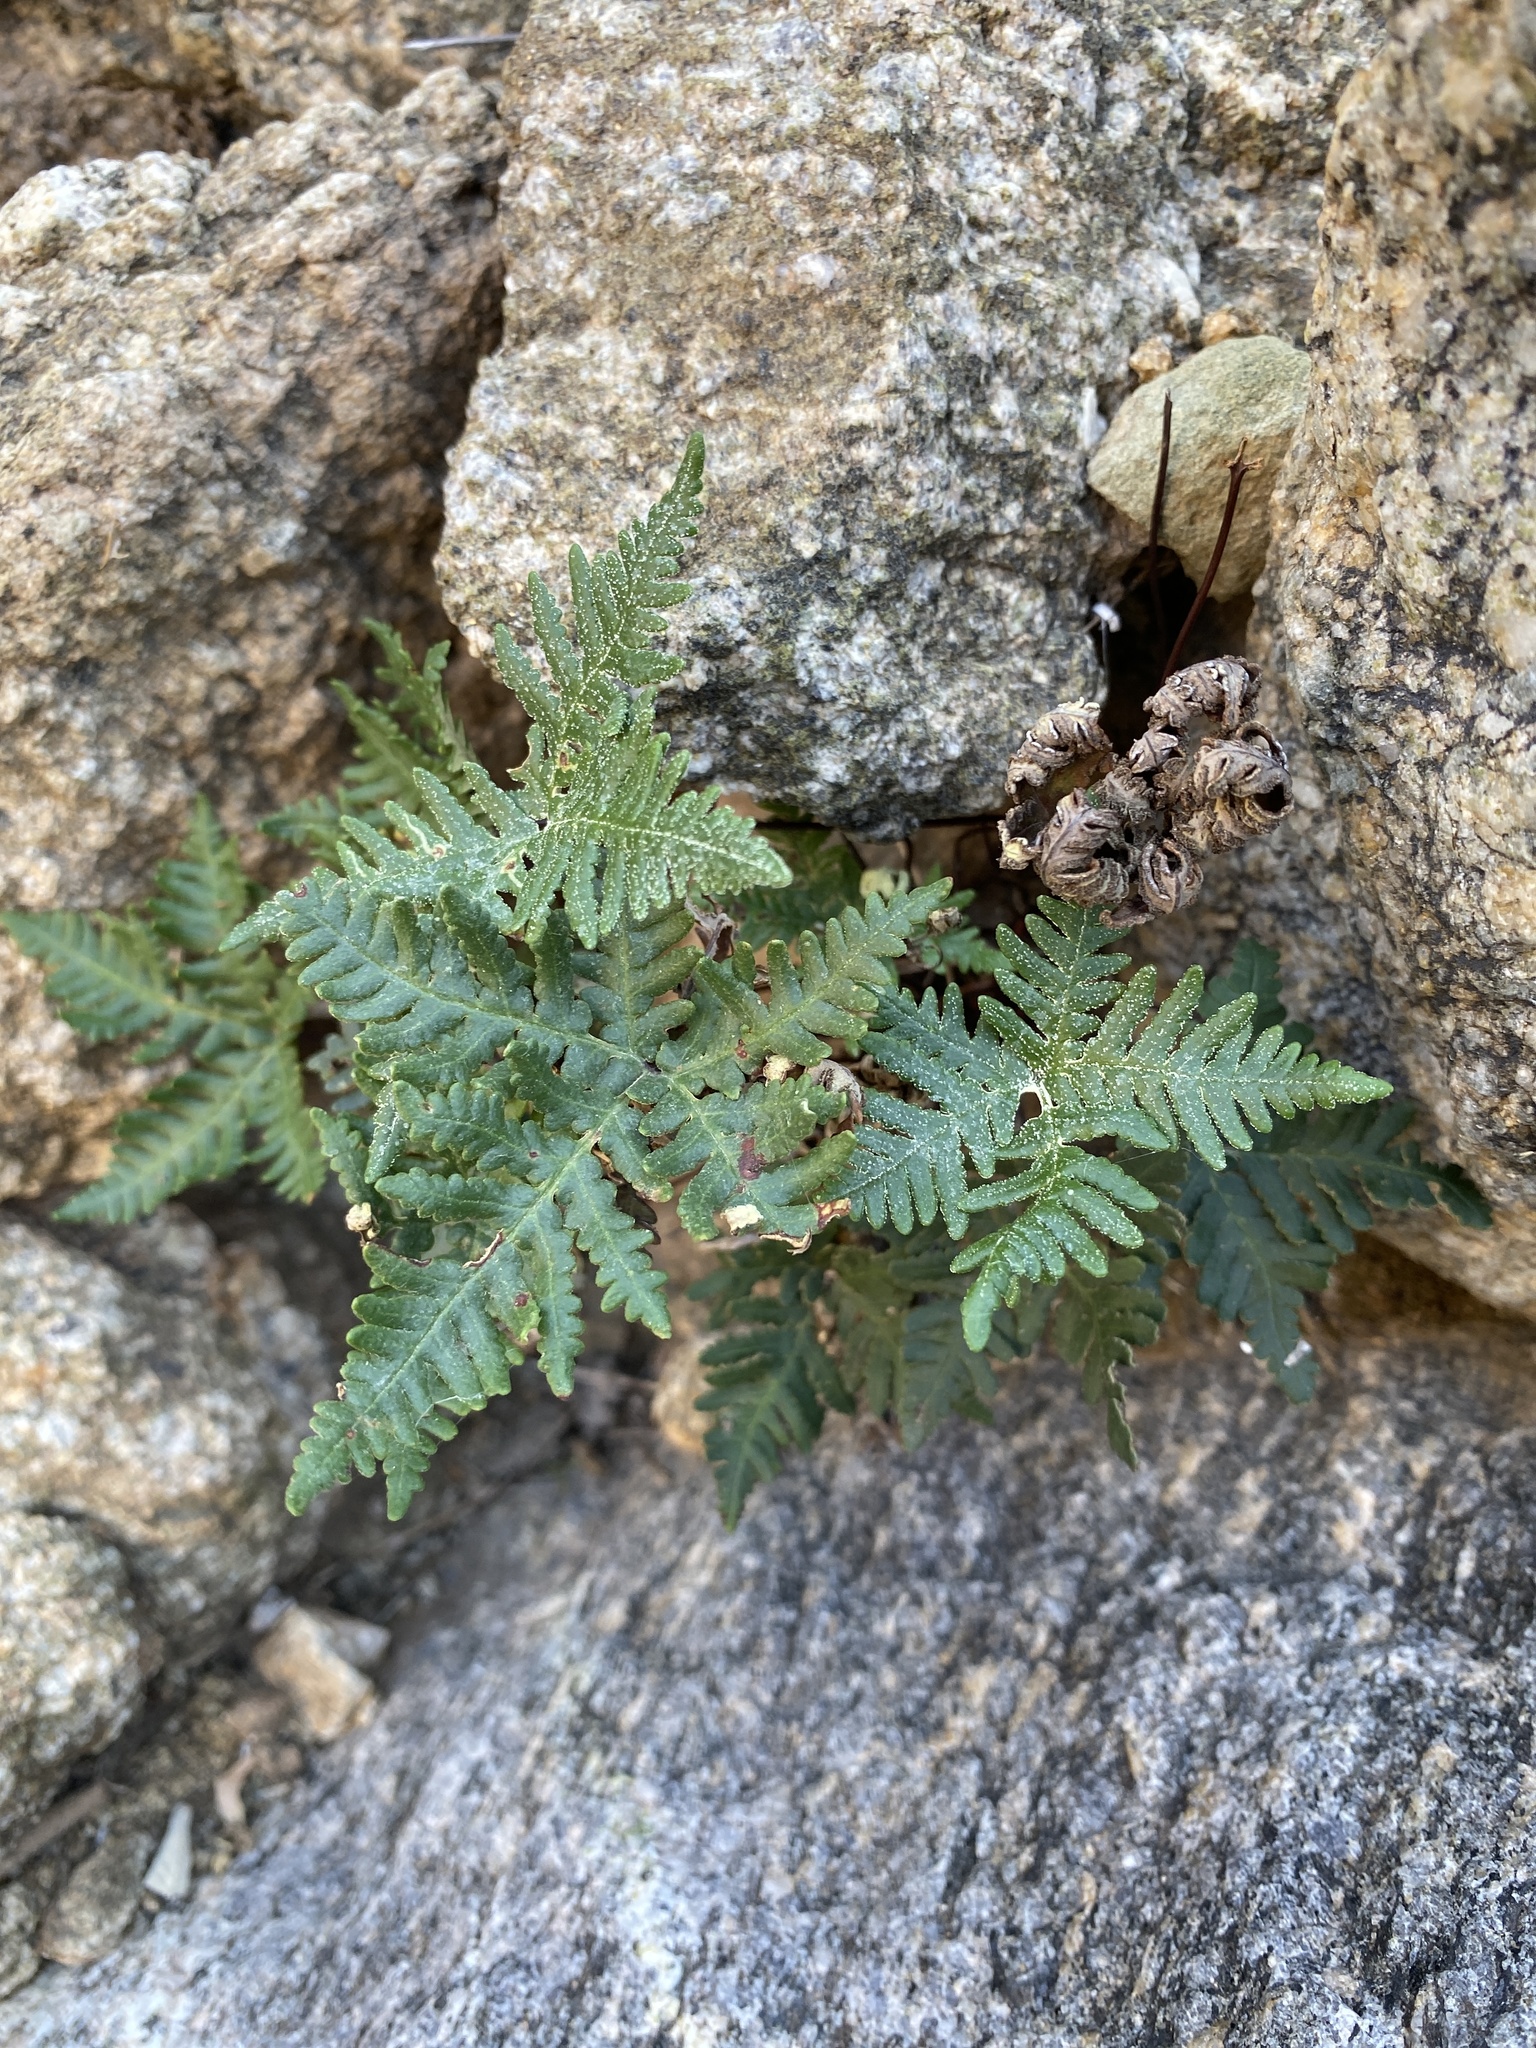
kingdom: Plantae
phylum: Tracheophyta
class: Polypodiopsida
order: Polypodiales
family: Pteridaceae
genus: Notholaena
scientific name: Notholaena standleyi
